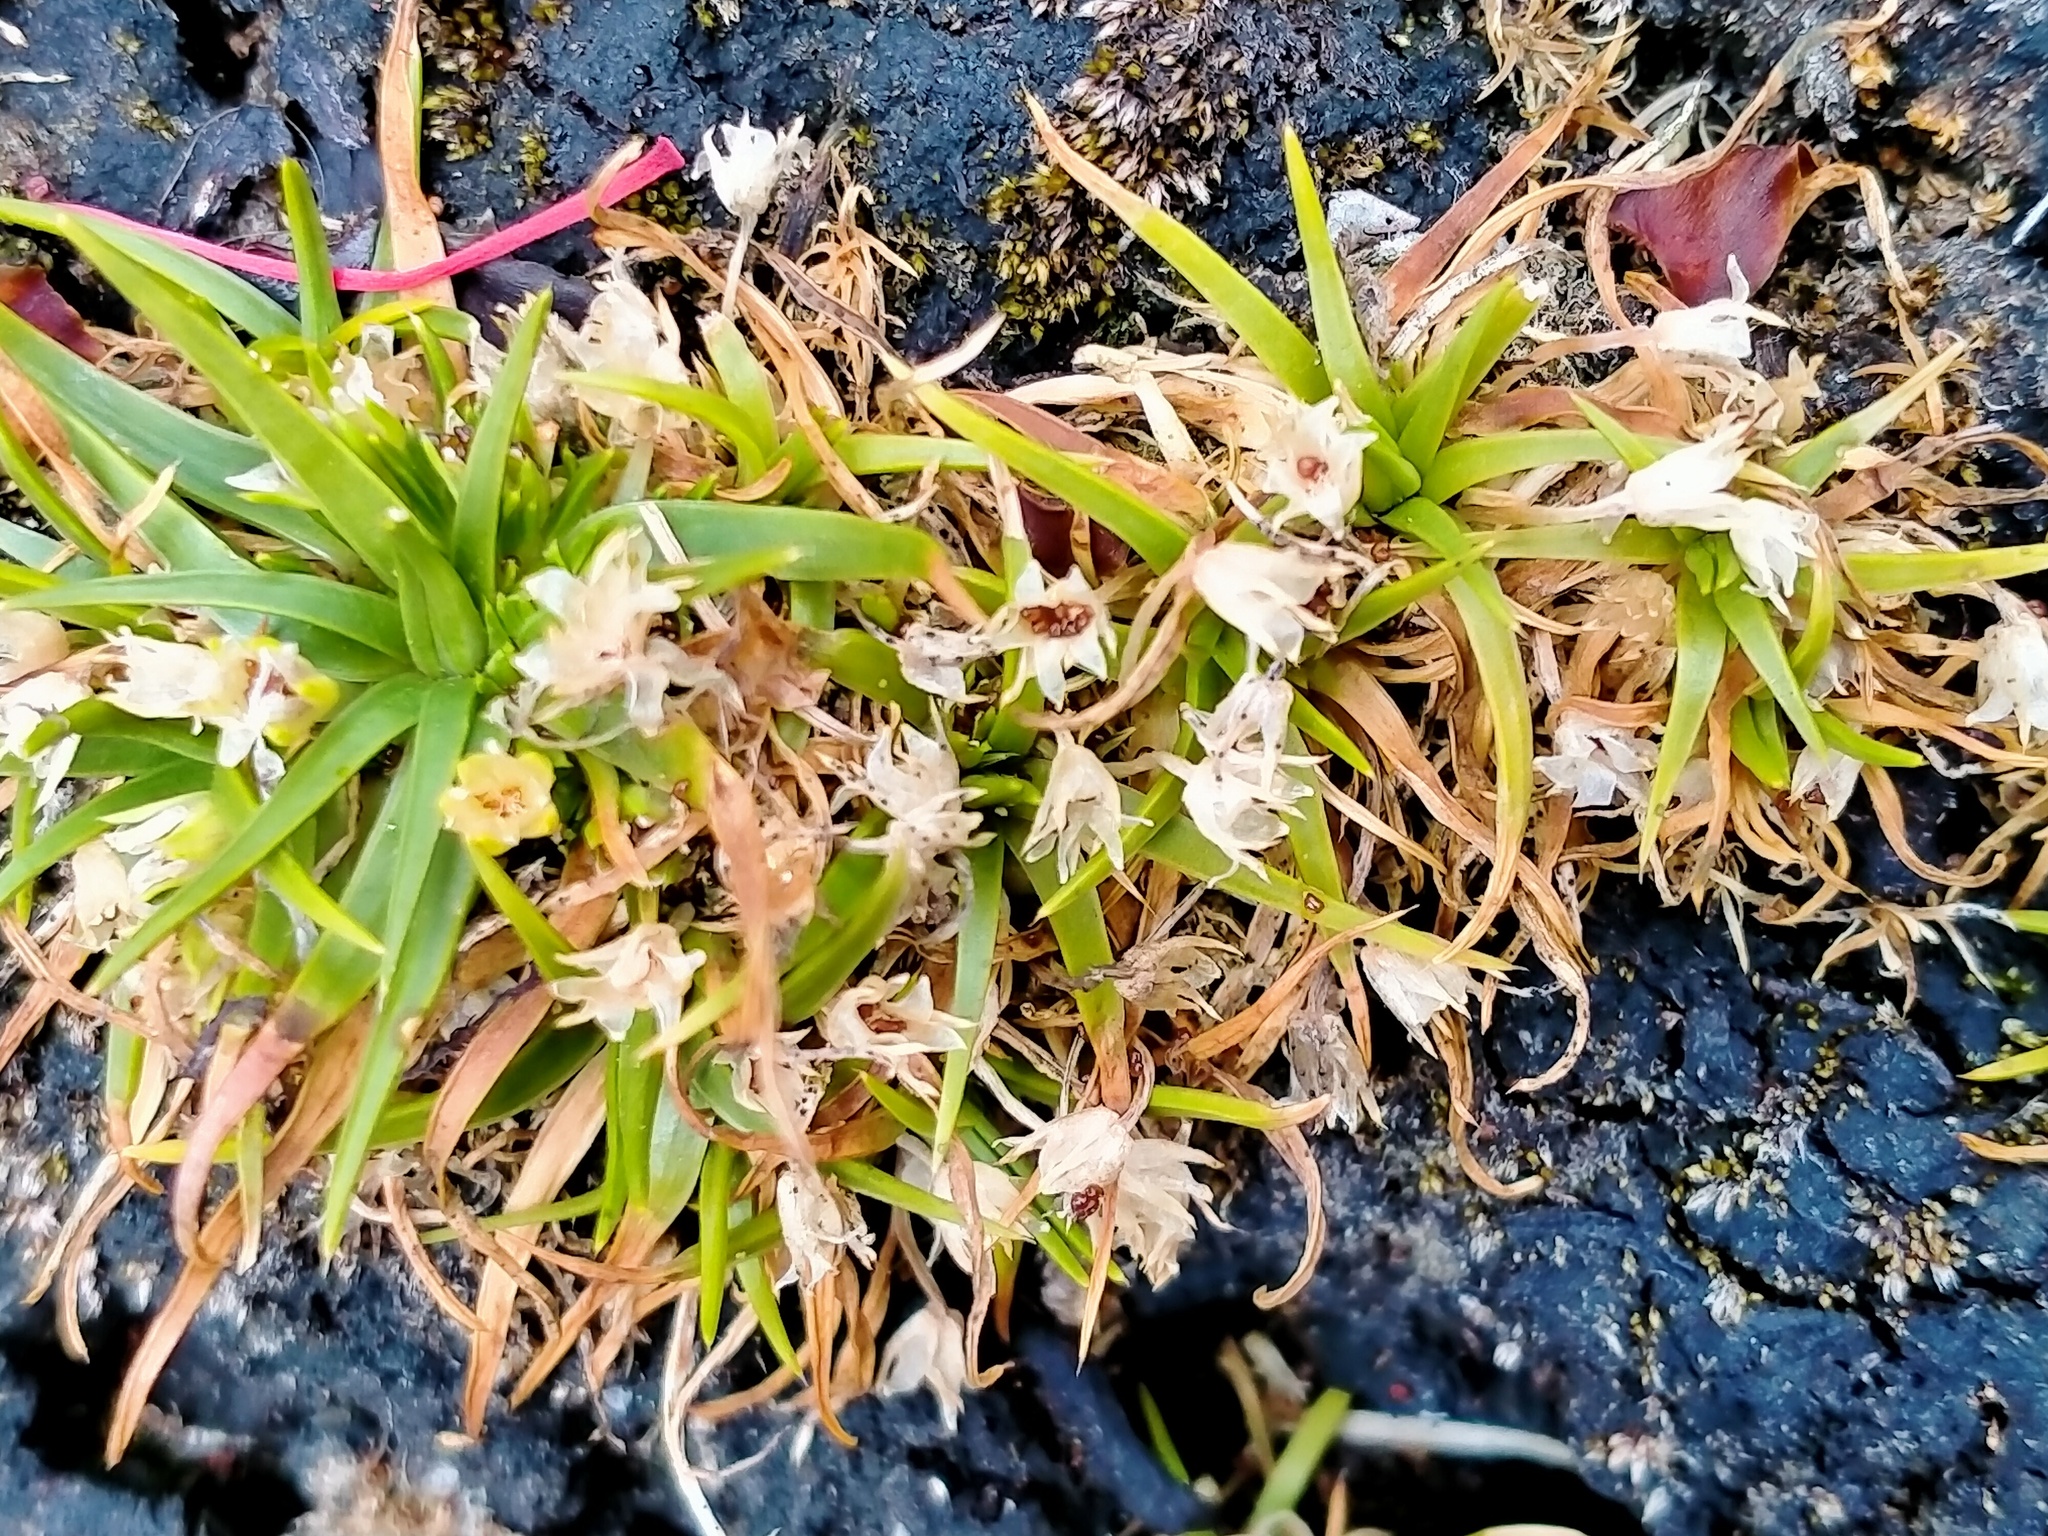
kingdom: Plantae
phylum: Tracheophyta
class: Magnoliopsida
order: Caryophyllales
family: Caryophyllaceae
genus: Colobanthus
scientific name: Colobanthus apetalus
